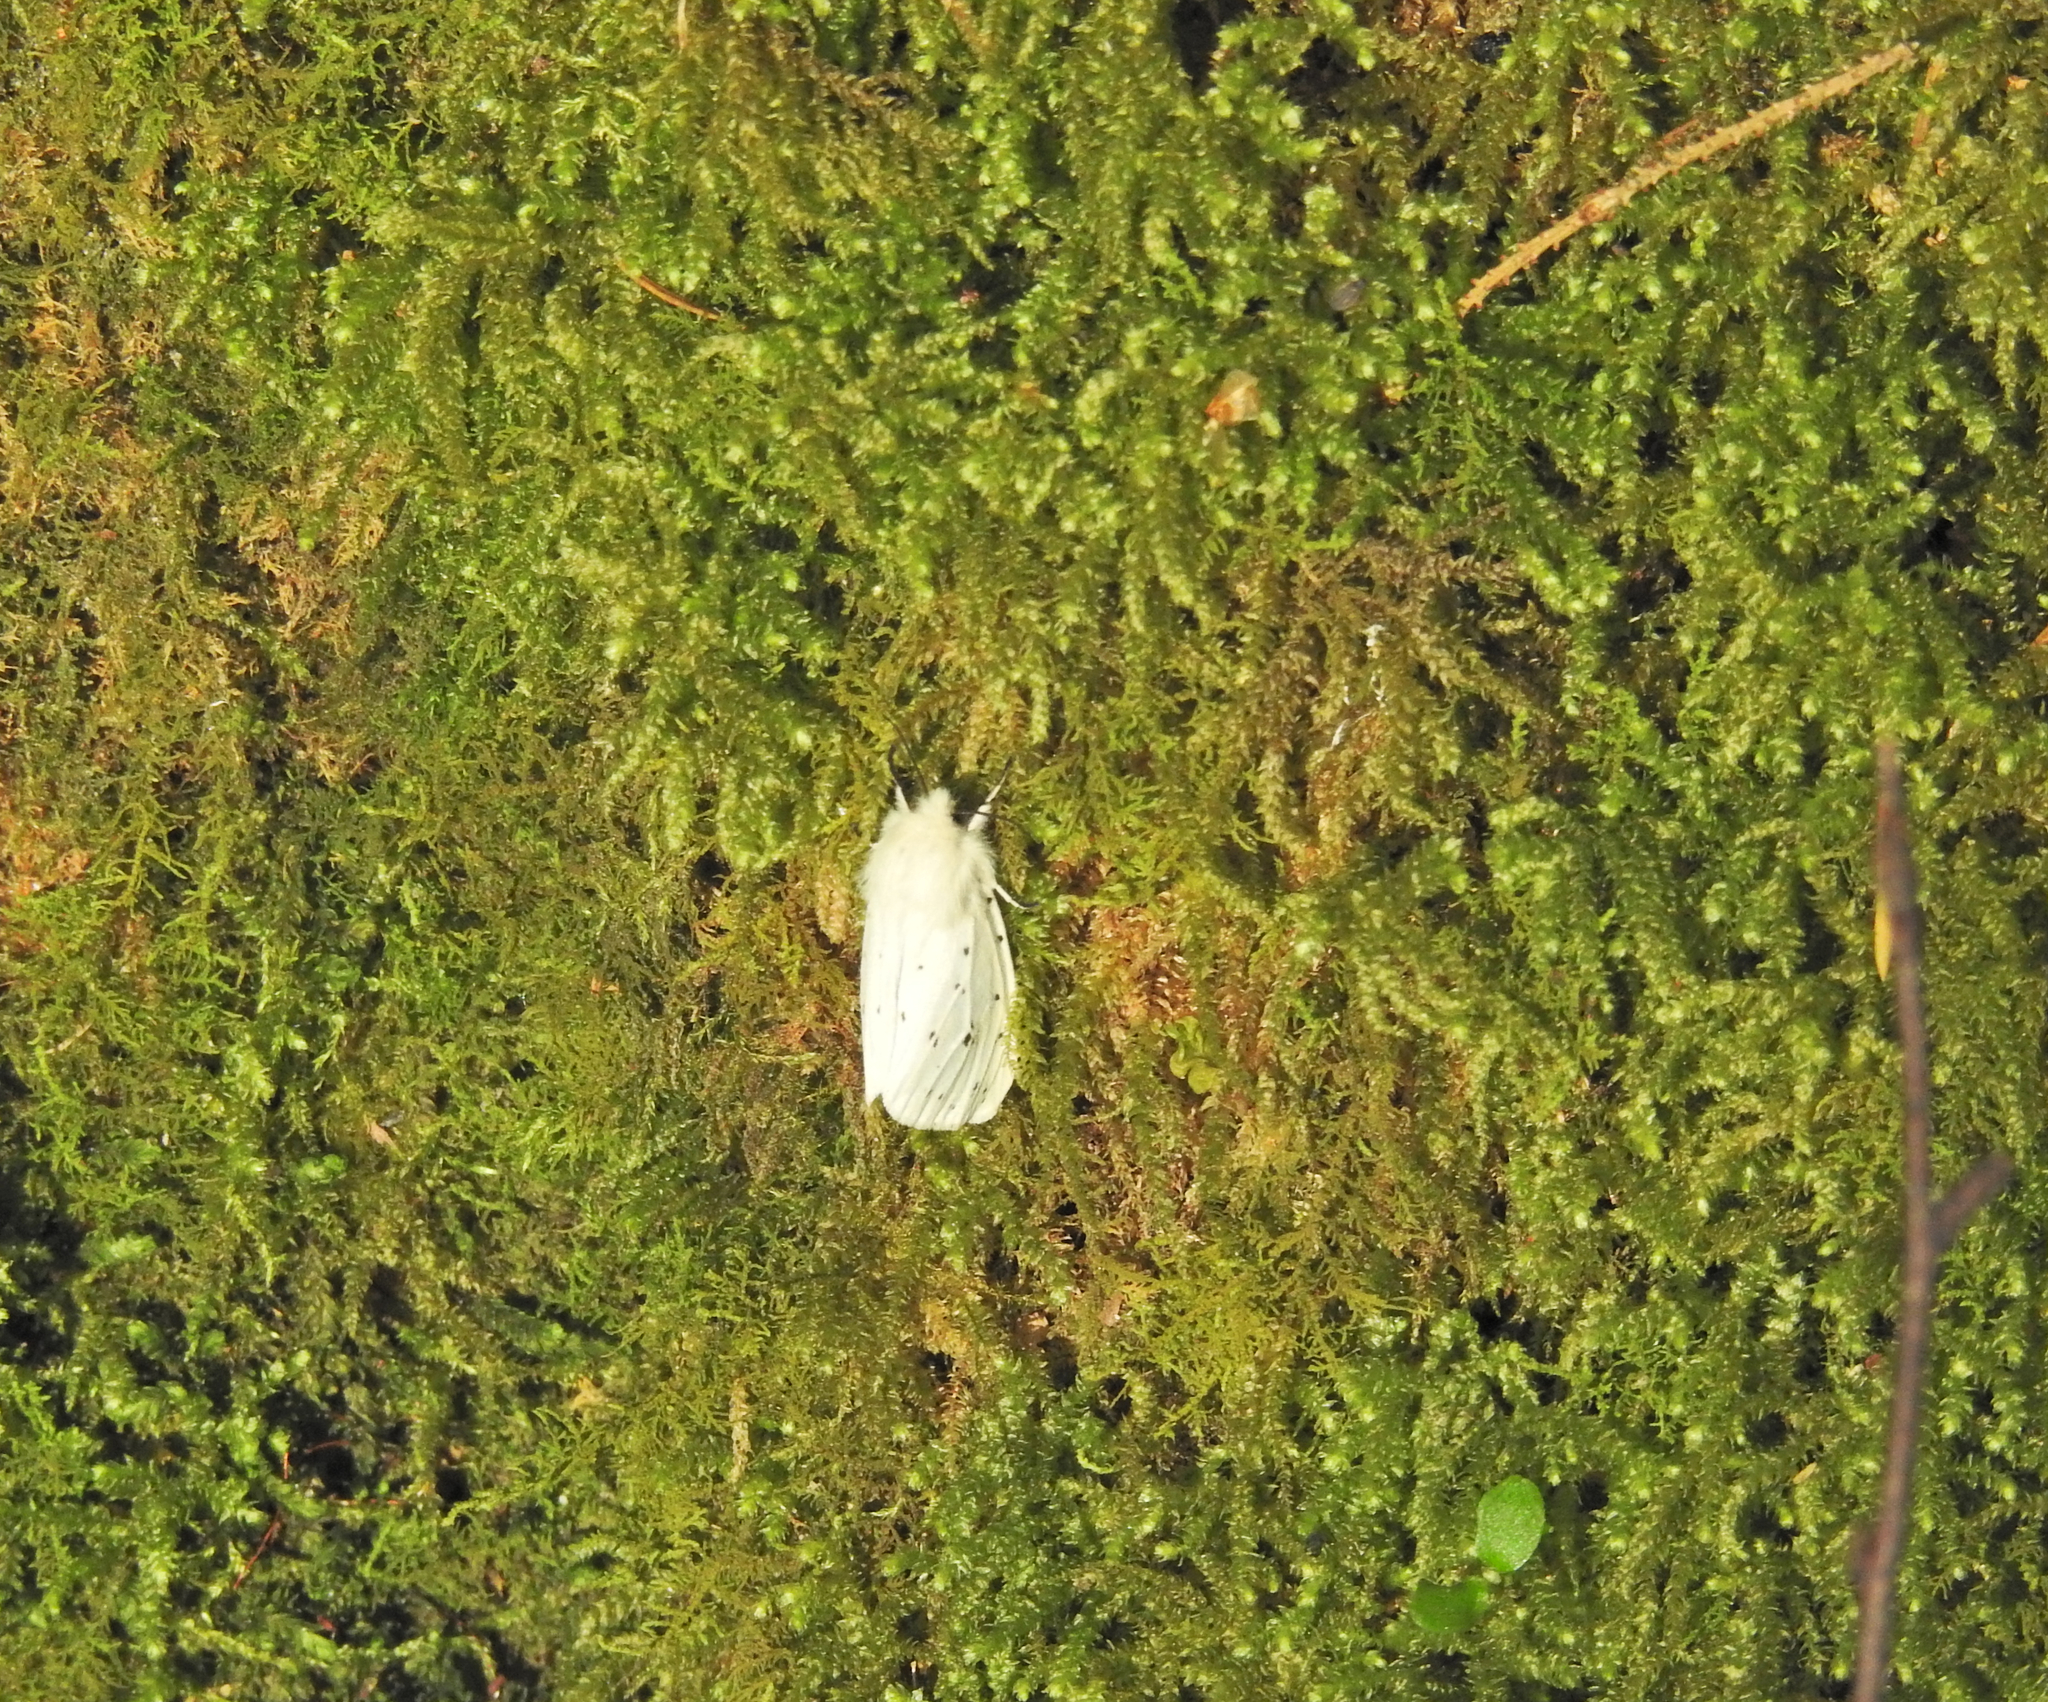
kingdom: Animalia
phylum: Arthropoda
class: Insecta
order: Lepidoptera
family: Erebidae
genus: Spilosoma
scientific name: Spilosoma lubricipeda
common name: White ermine
